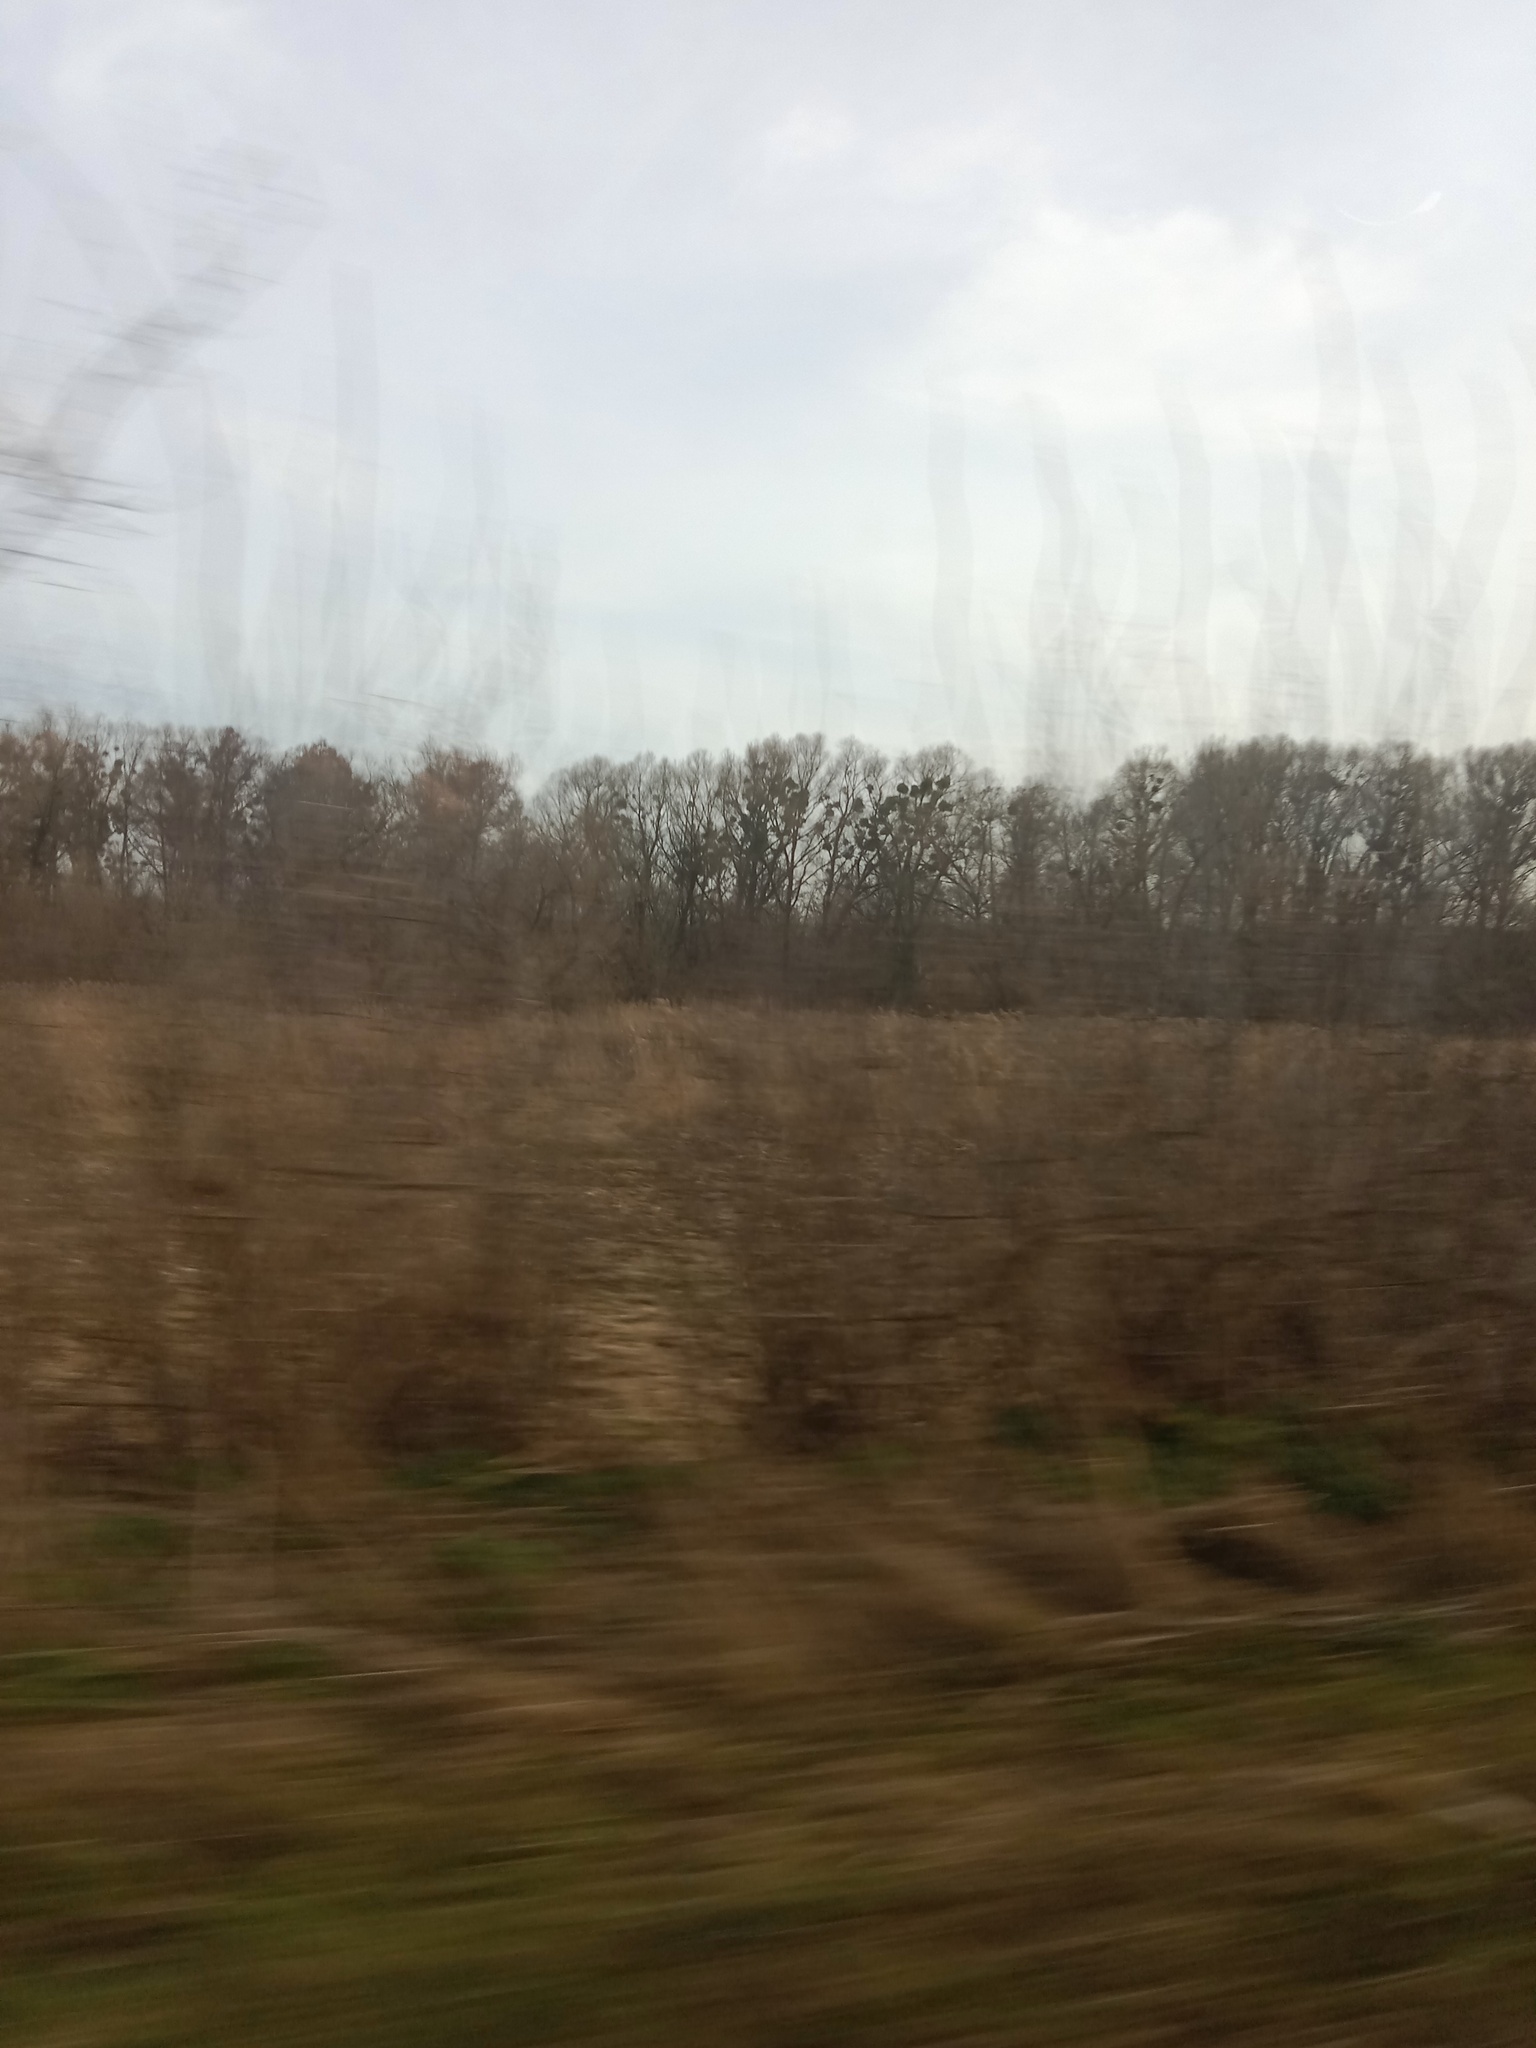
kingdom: Plantae
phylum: Tracheophyta
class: Magnoliopsida
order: Santalales
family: Viscaceae
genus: Viscum
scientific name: Viscum album
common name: Mistletoe
